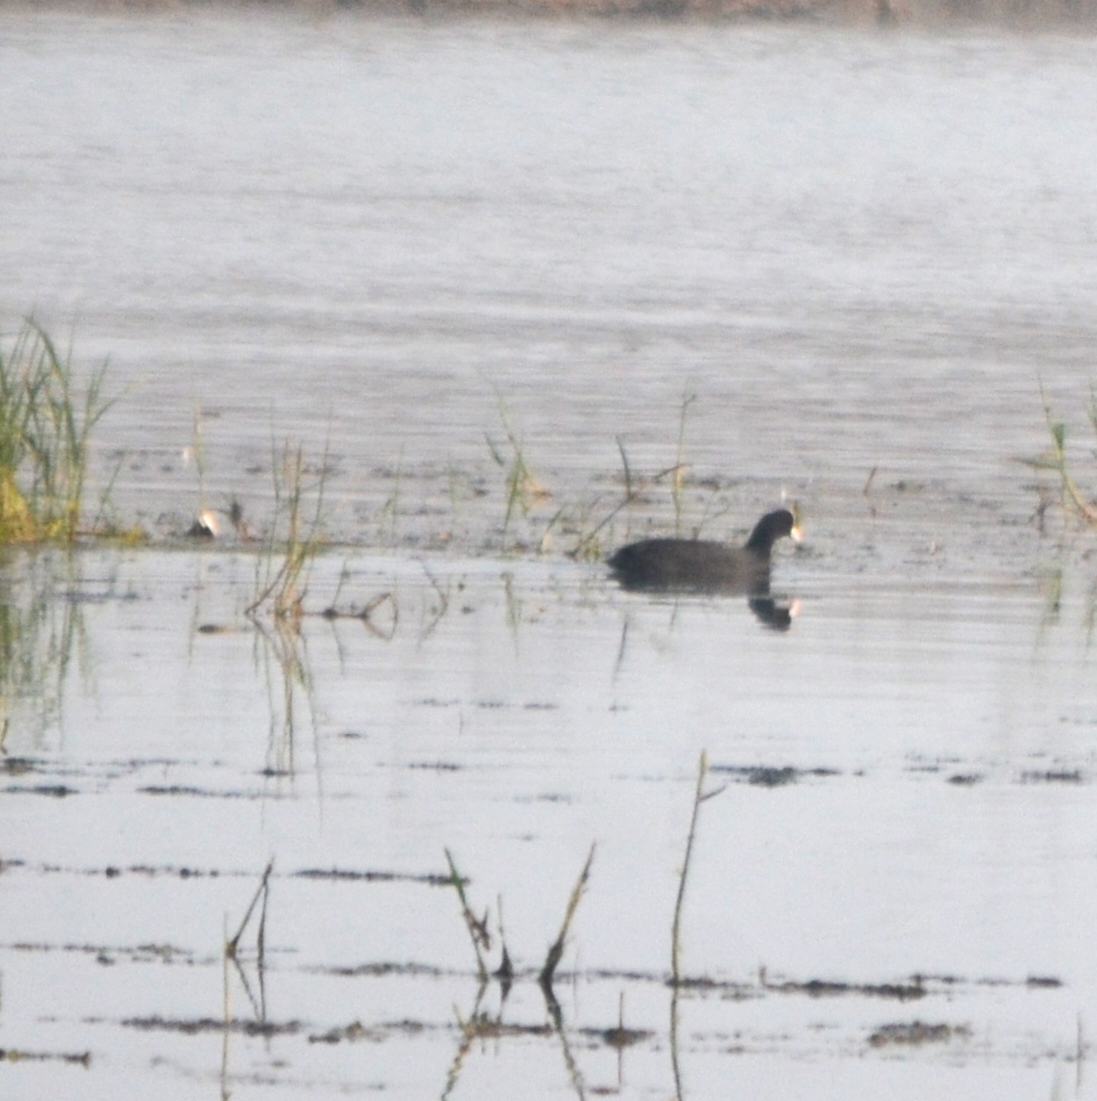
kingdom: Animalia
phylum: Chordata
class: Aves
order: Gruiformes
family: Rallidae
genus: Fulica
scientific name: Fulica atra
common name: Eurasian coot
